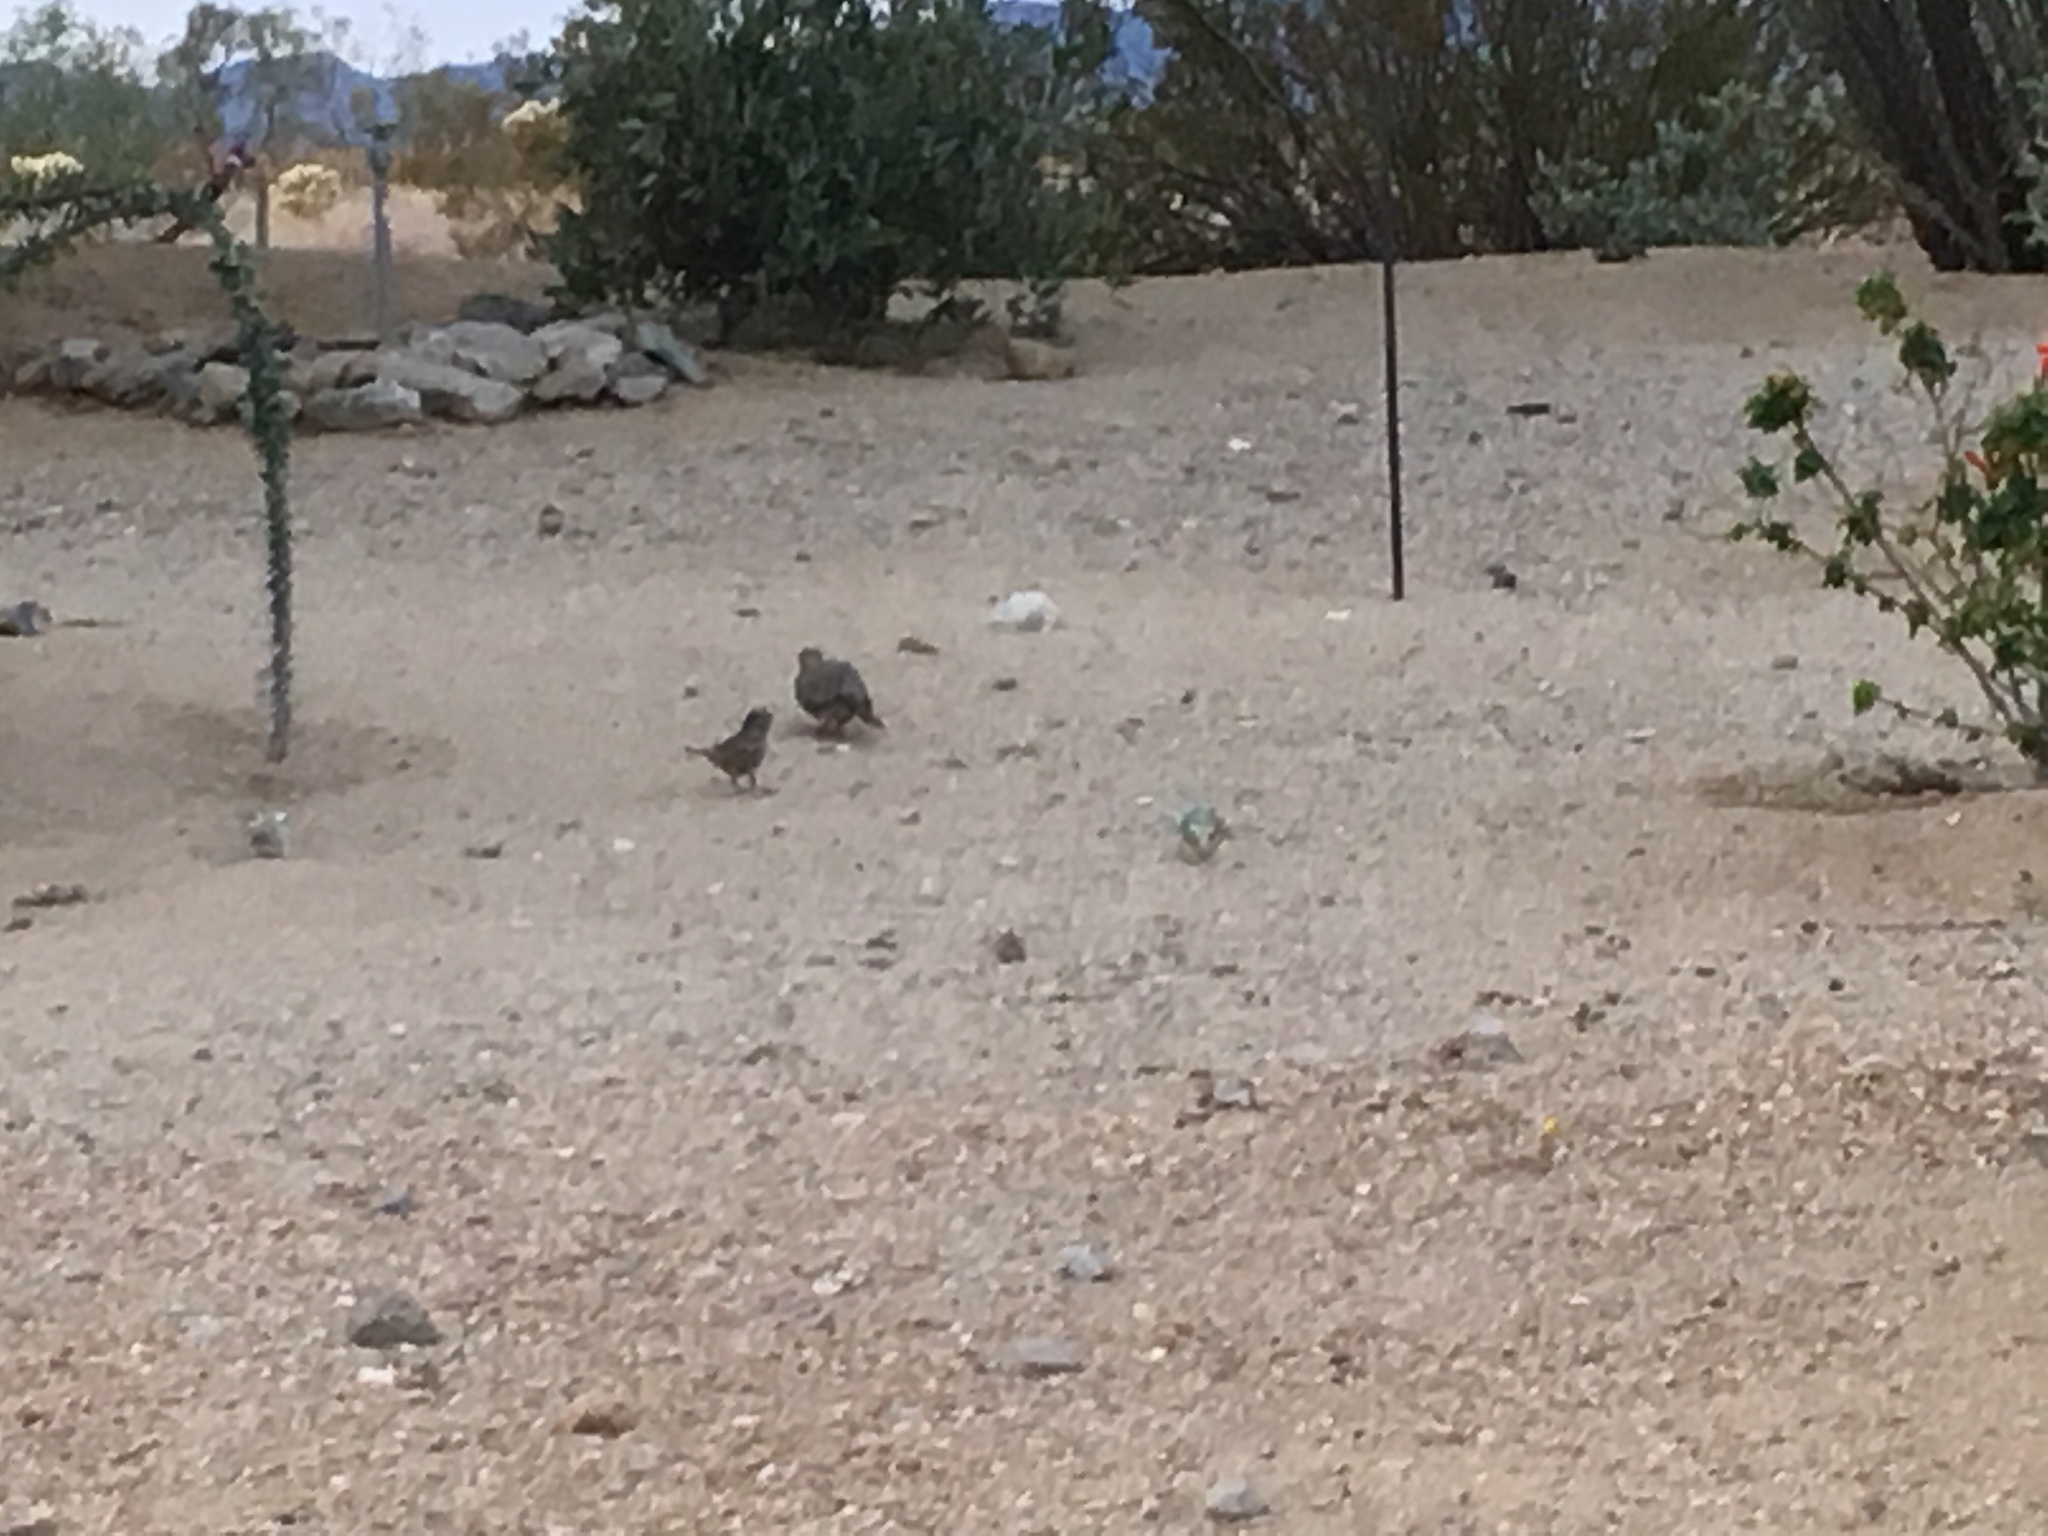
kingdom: Animalia
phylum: Chordata
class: Aves
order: Columbiformes
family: Columbidae
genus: Zenaida
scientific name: Zenaida macroura
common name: Mourning dove
